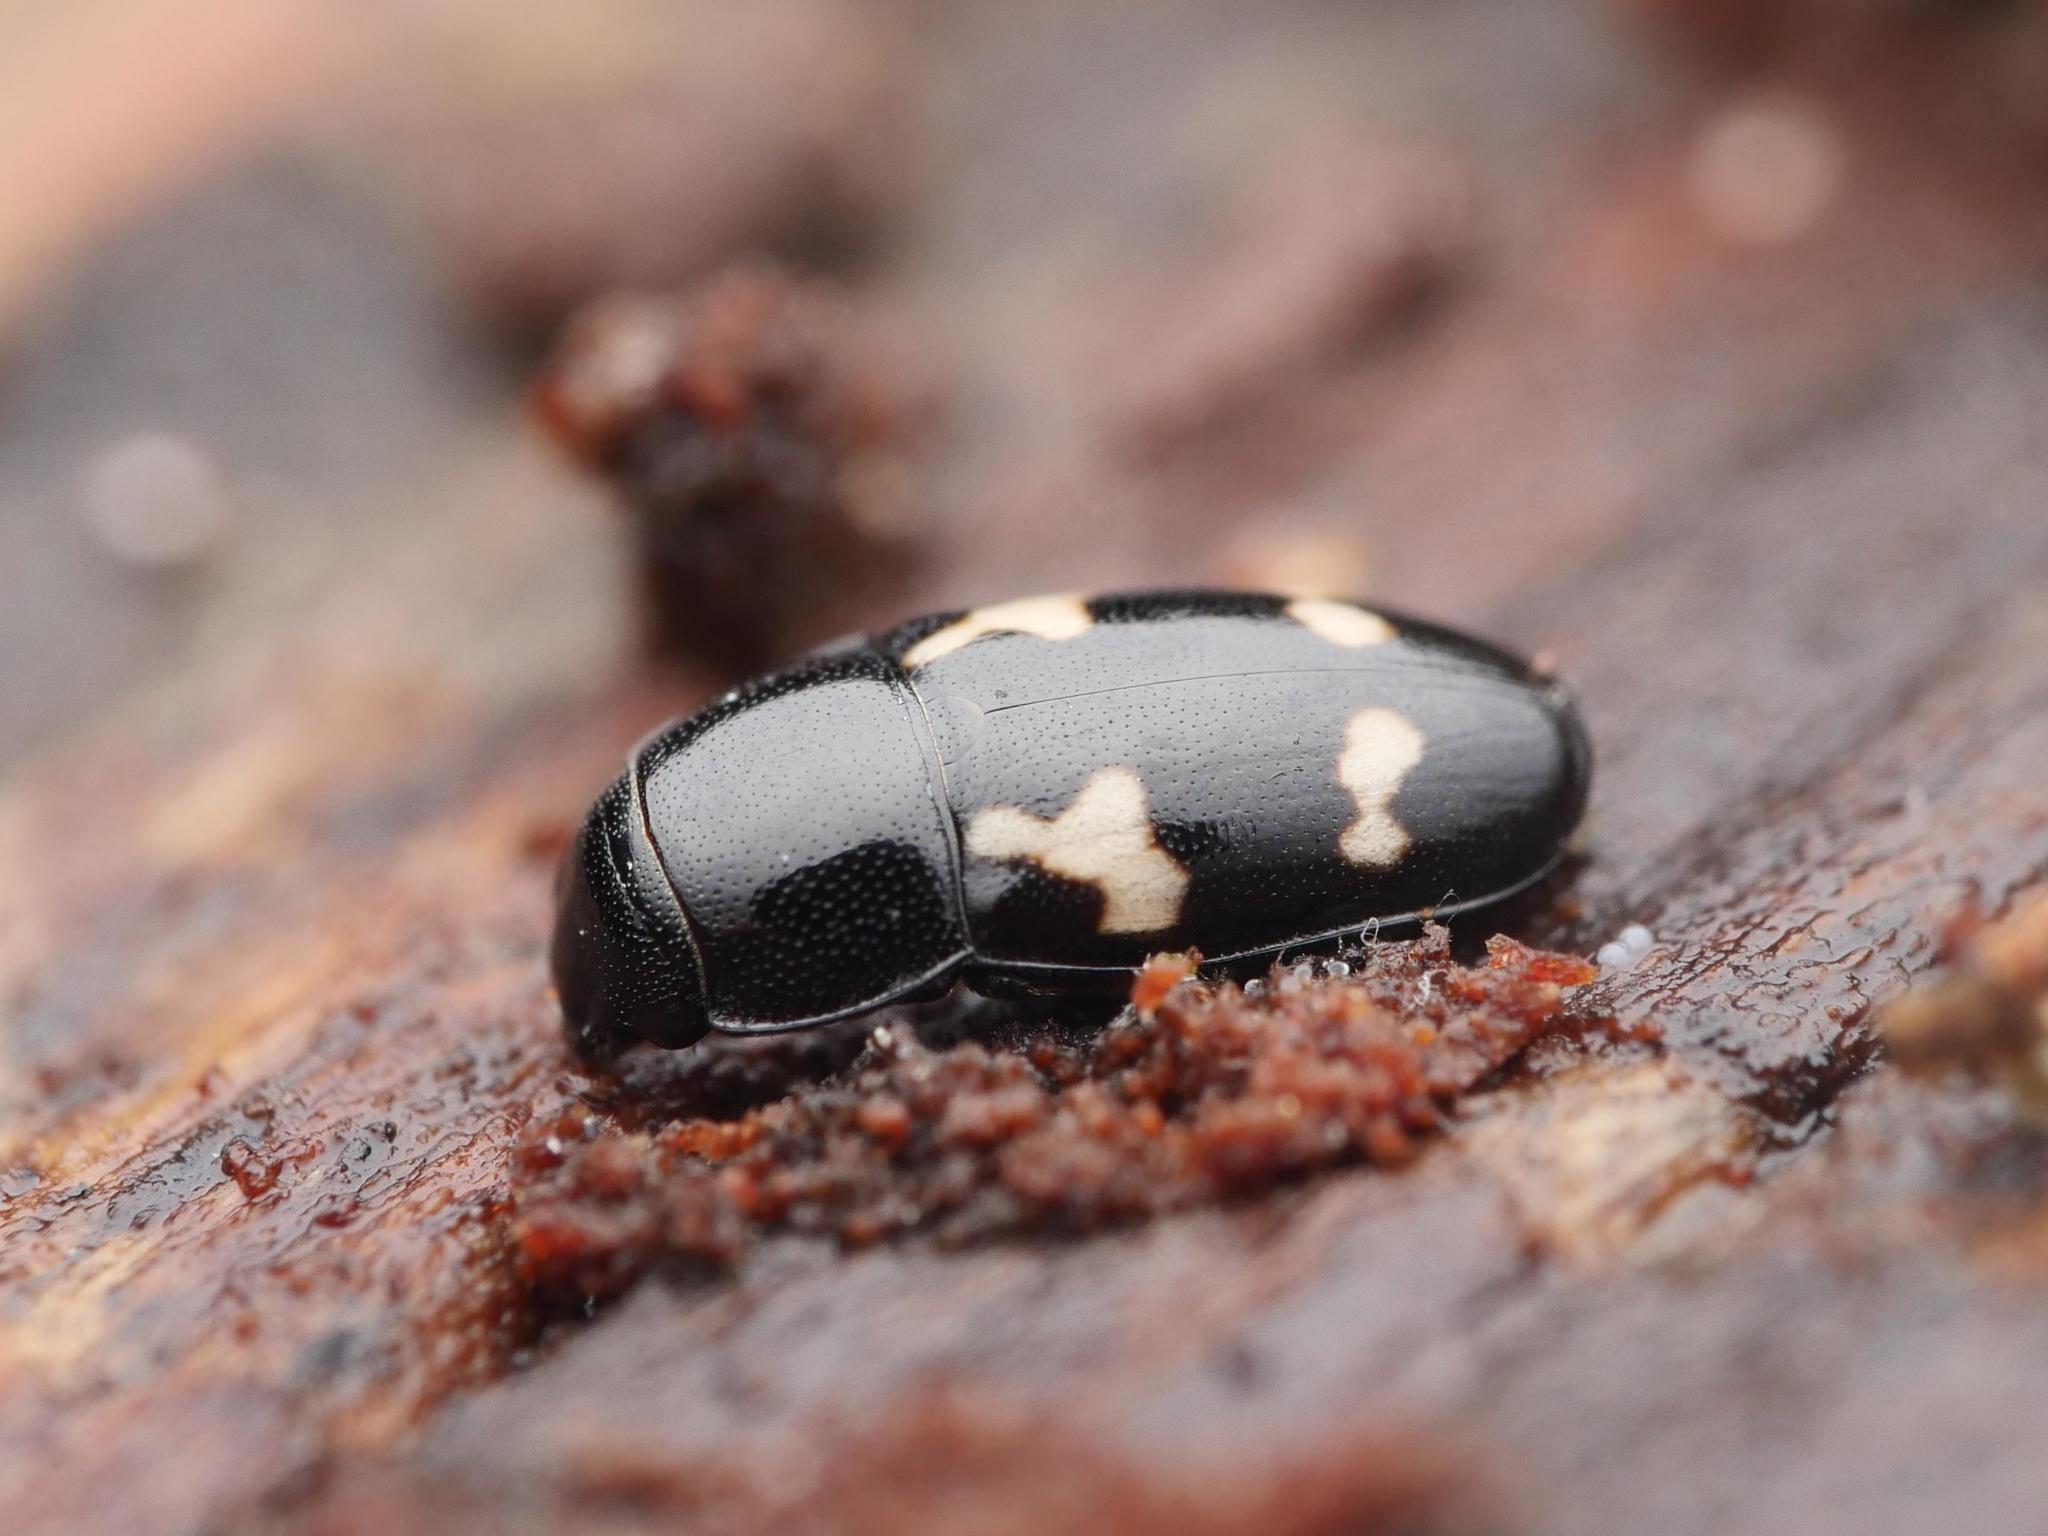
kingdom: Animalia
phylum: Arthropoda
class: Insecta
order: Coleoptera
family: Nitidulidae
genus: Glischrochilus
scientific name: Glischrochilus quadriguttatus
